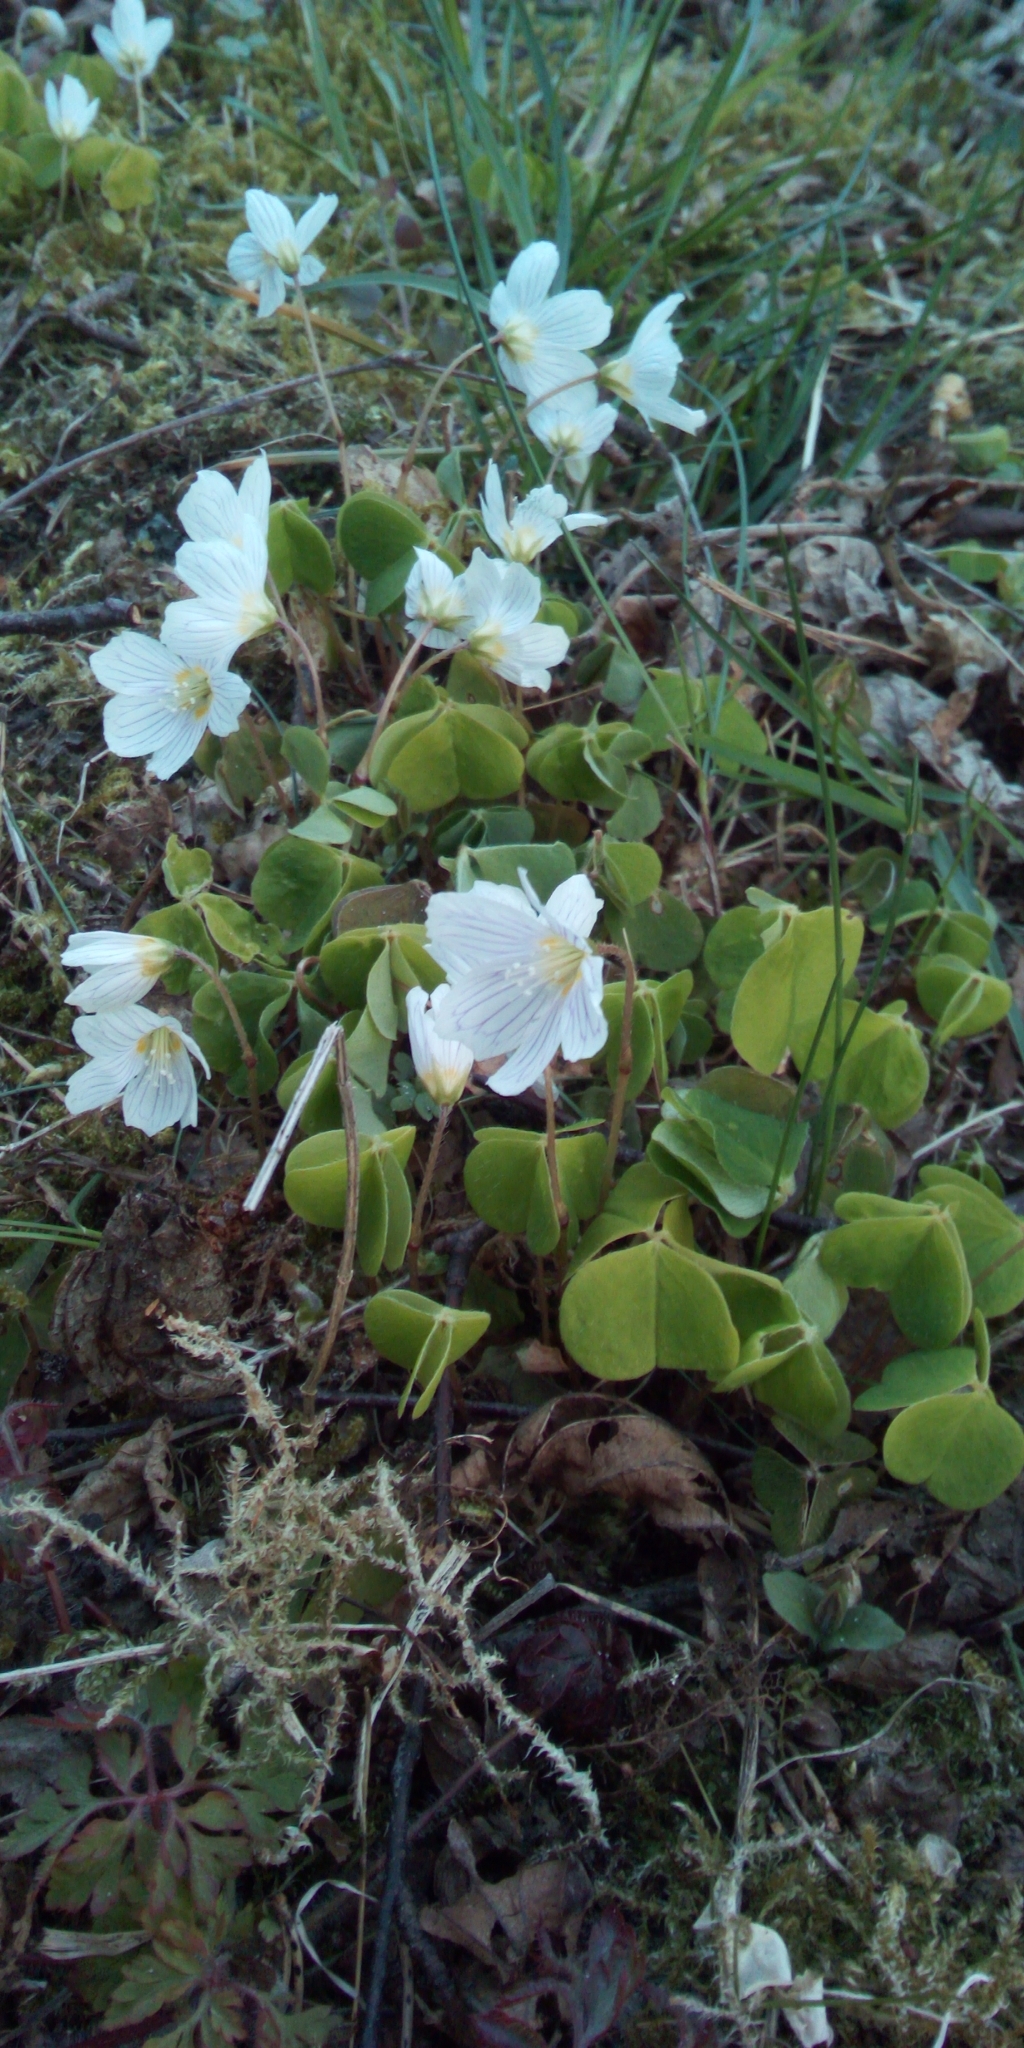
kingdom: Plantae
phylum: Tracheophyta
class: Magnoliopsida
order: Oxalidales
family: Oxalidaceae
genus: Oxalis
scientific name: Oxalis acetosella
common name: Wood-sorrel
